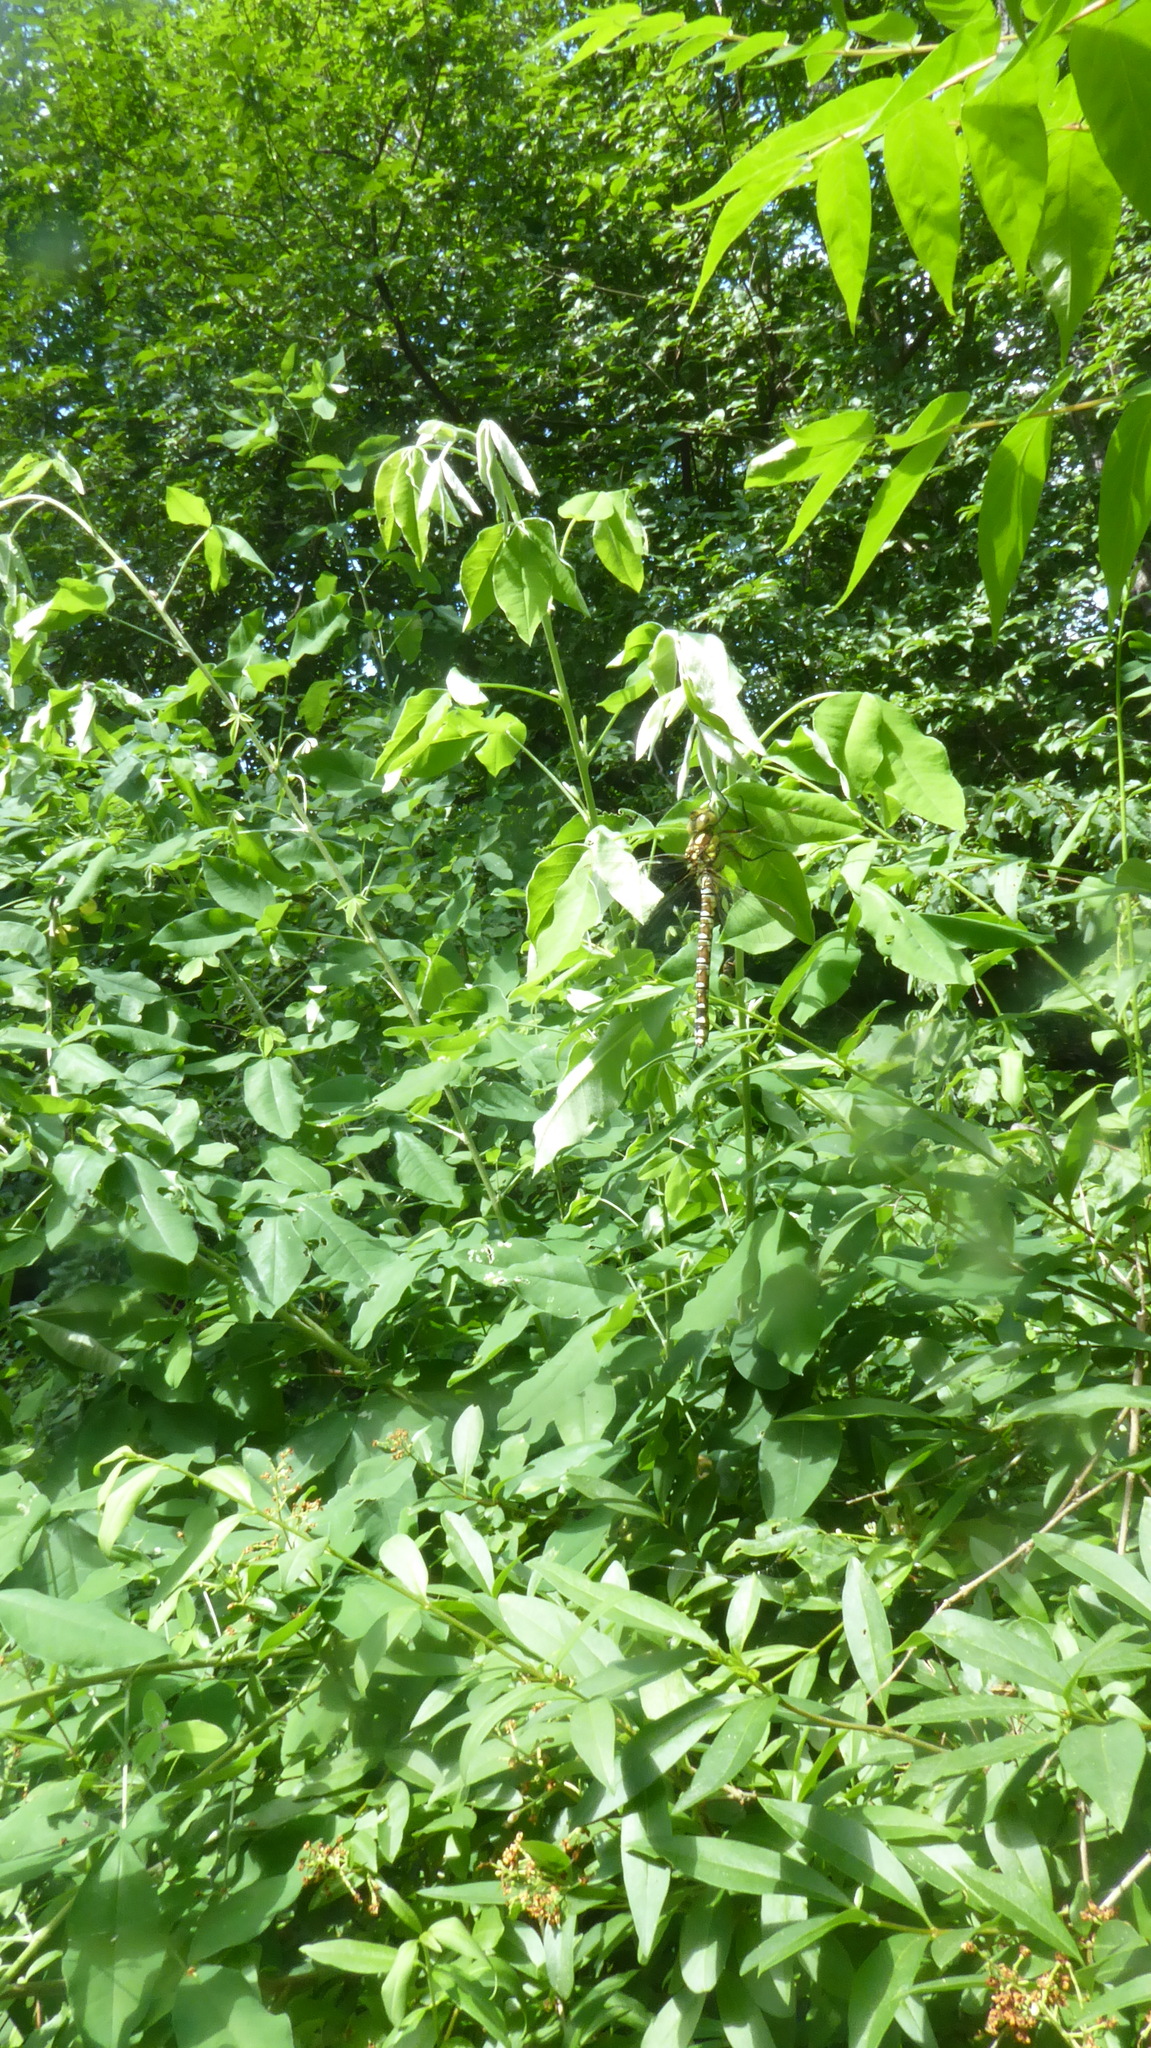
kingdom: Animalia
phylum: Arthropoda
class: Insecta
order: Odonata
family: Aeshnidae
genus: Aeshna
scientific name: Aeshna cyanea
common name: Southern hawker
